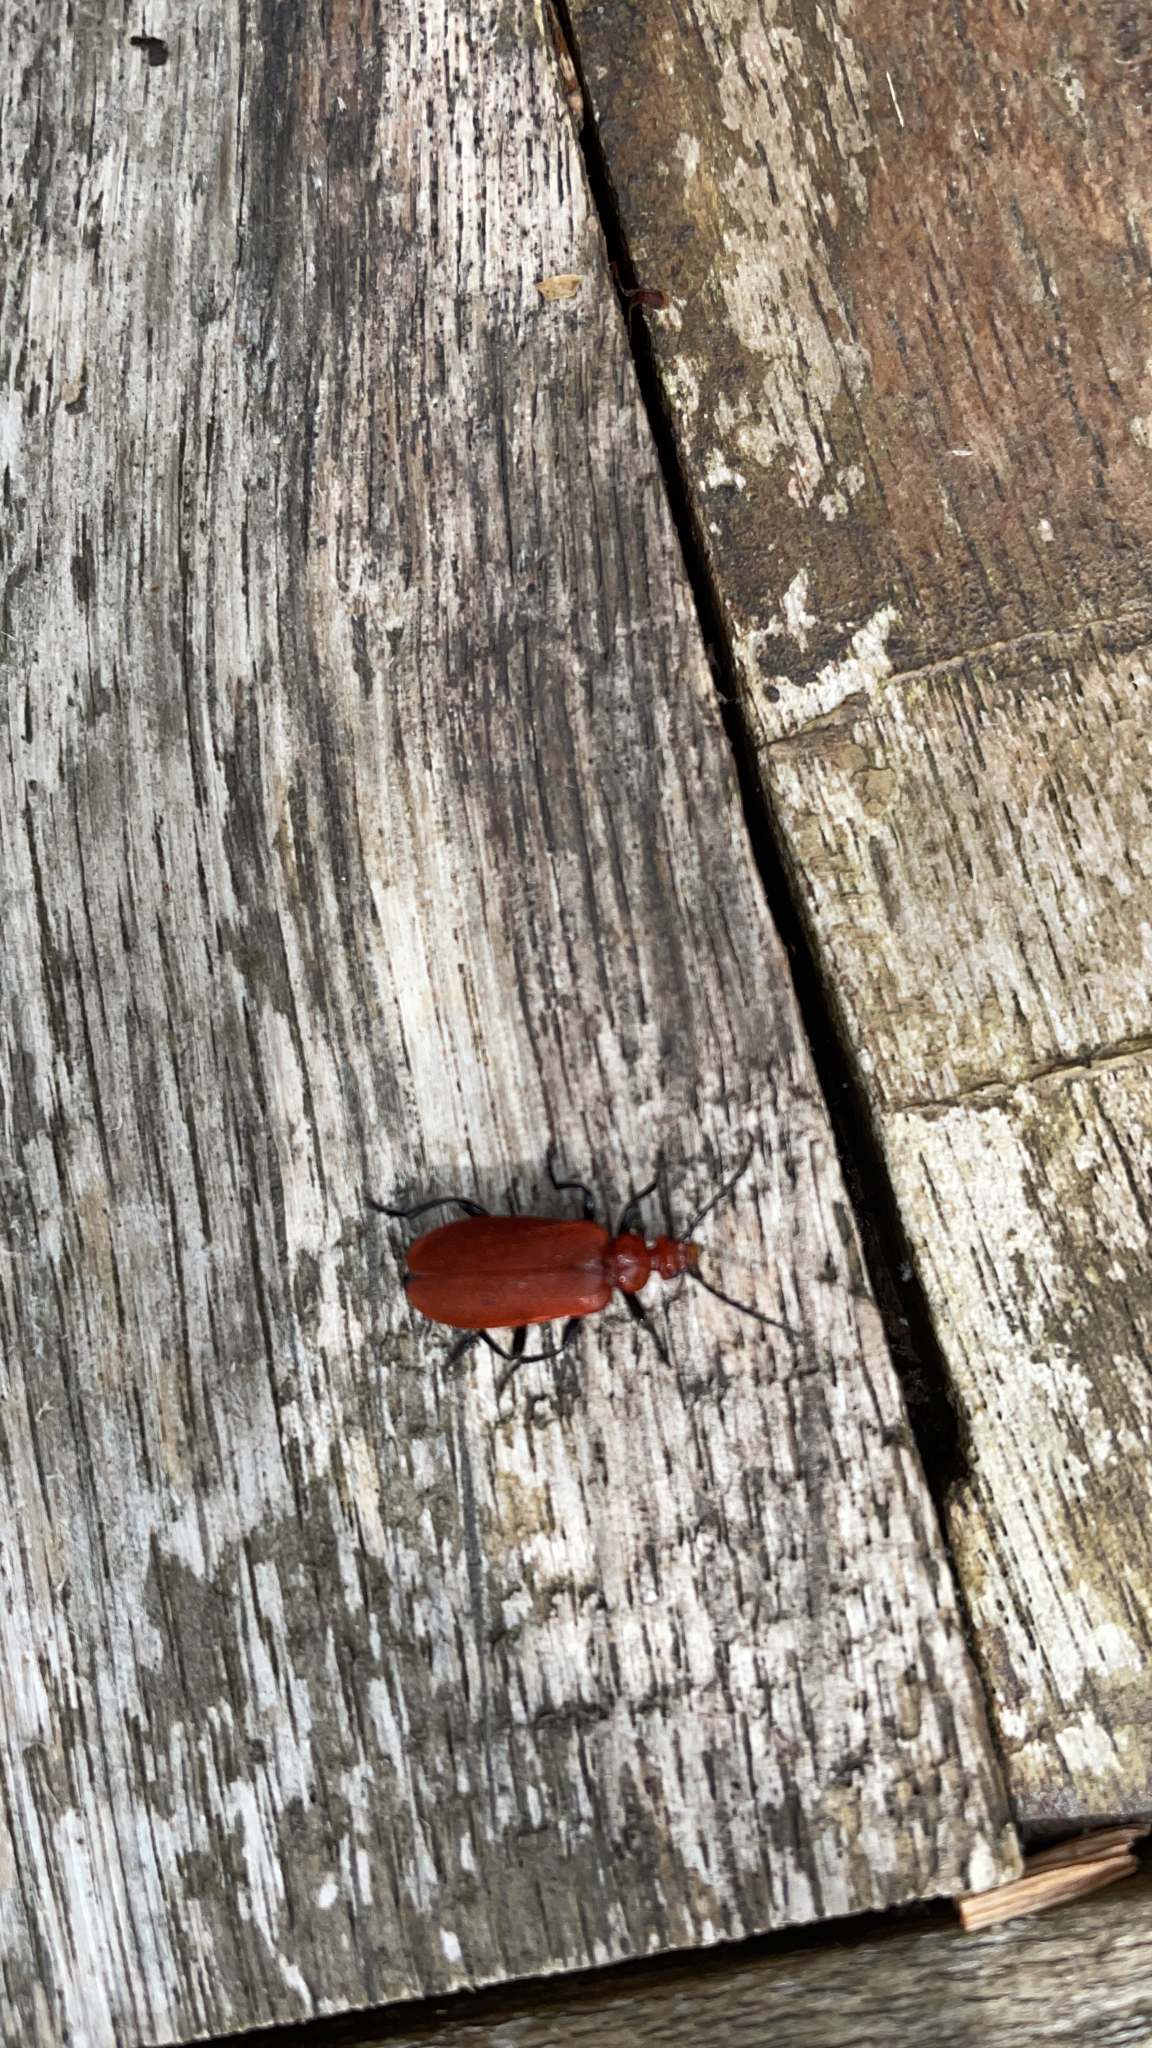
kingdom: Animalia
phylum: Arthropoda
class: Insecta
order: Coleoptera
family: Pyrochroidae
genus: Pyrochroa
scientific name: Pyrochroa serraticornis
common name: Red-headed cardinal beetle
